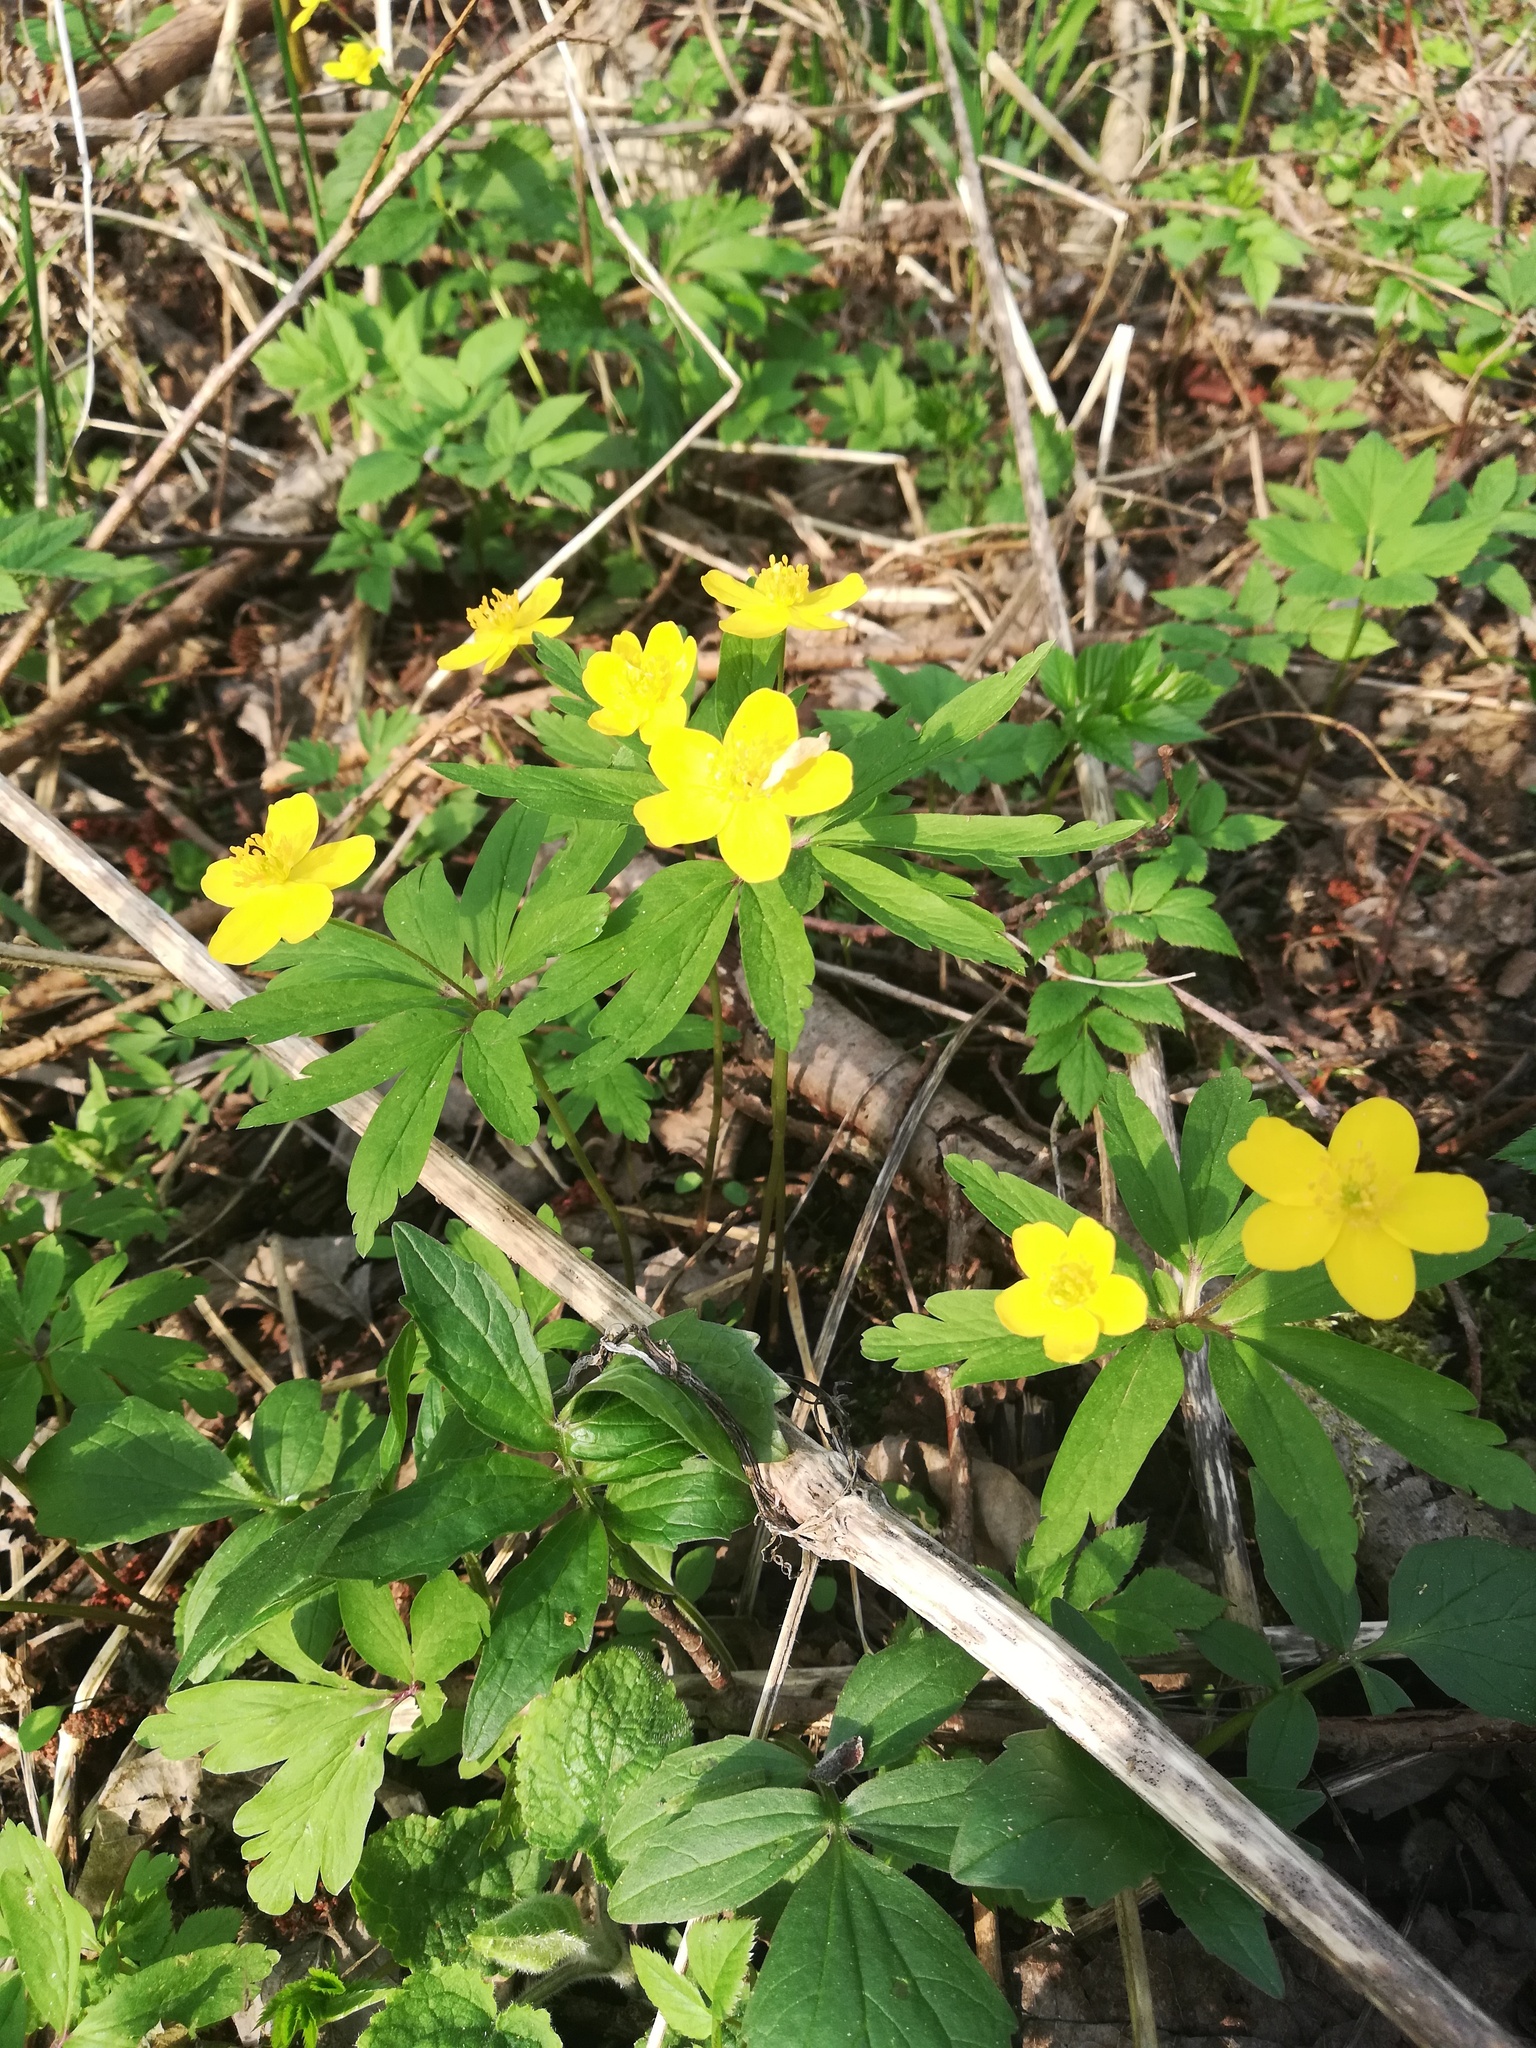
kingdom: Plantae
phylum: Tracheophyta
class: Magnoliopsida
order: Ranunculales
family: Ranunculaceae
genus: Anemone
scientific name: Anemone ranunculoides
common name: Yellow anemone
